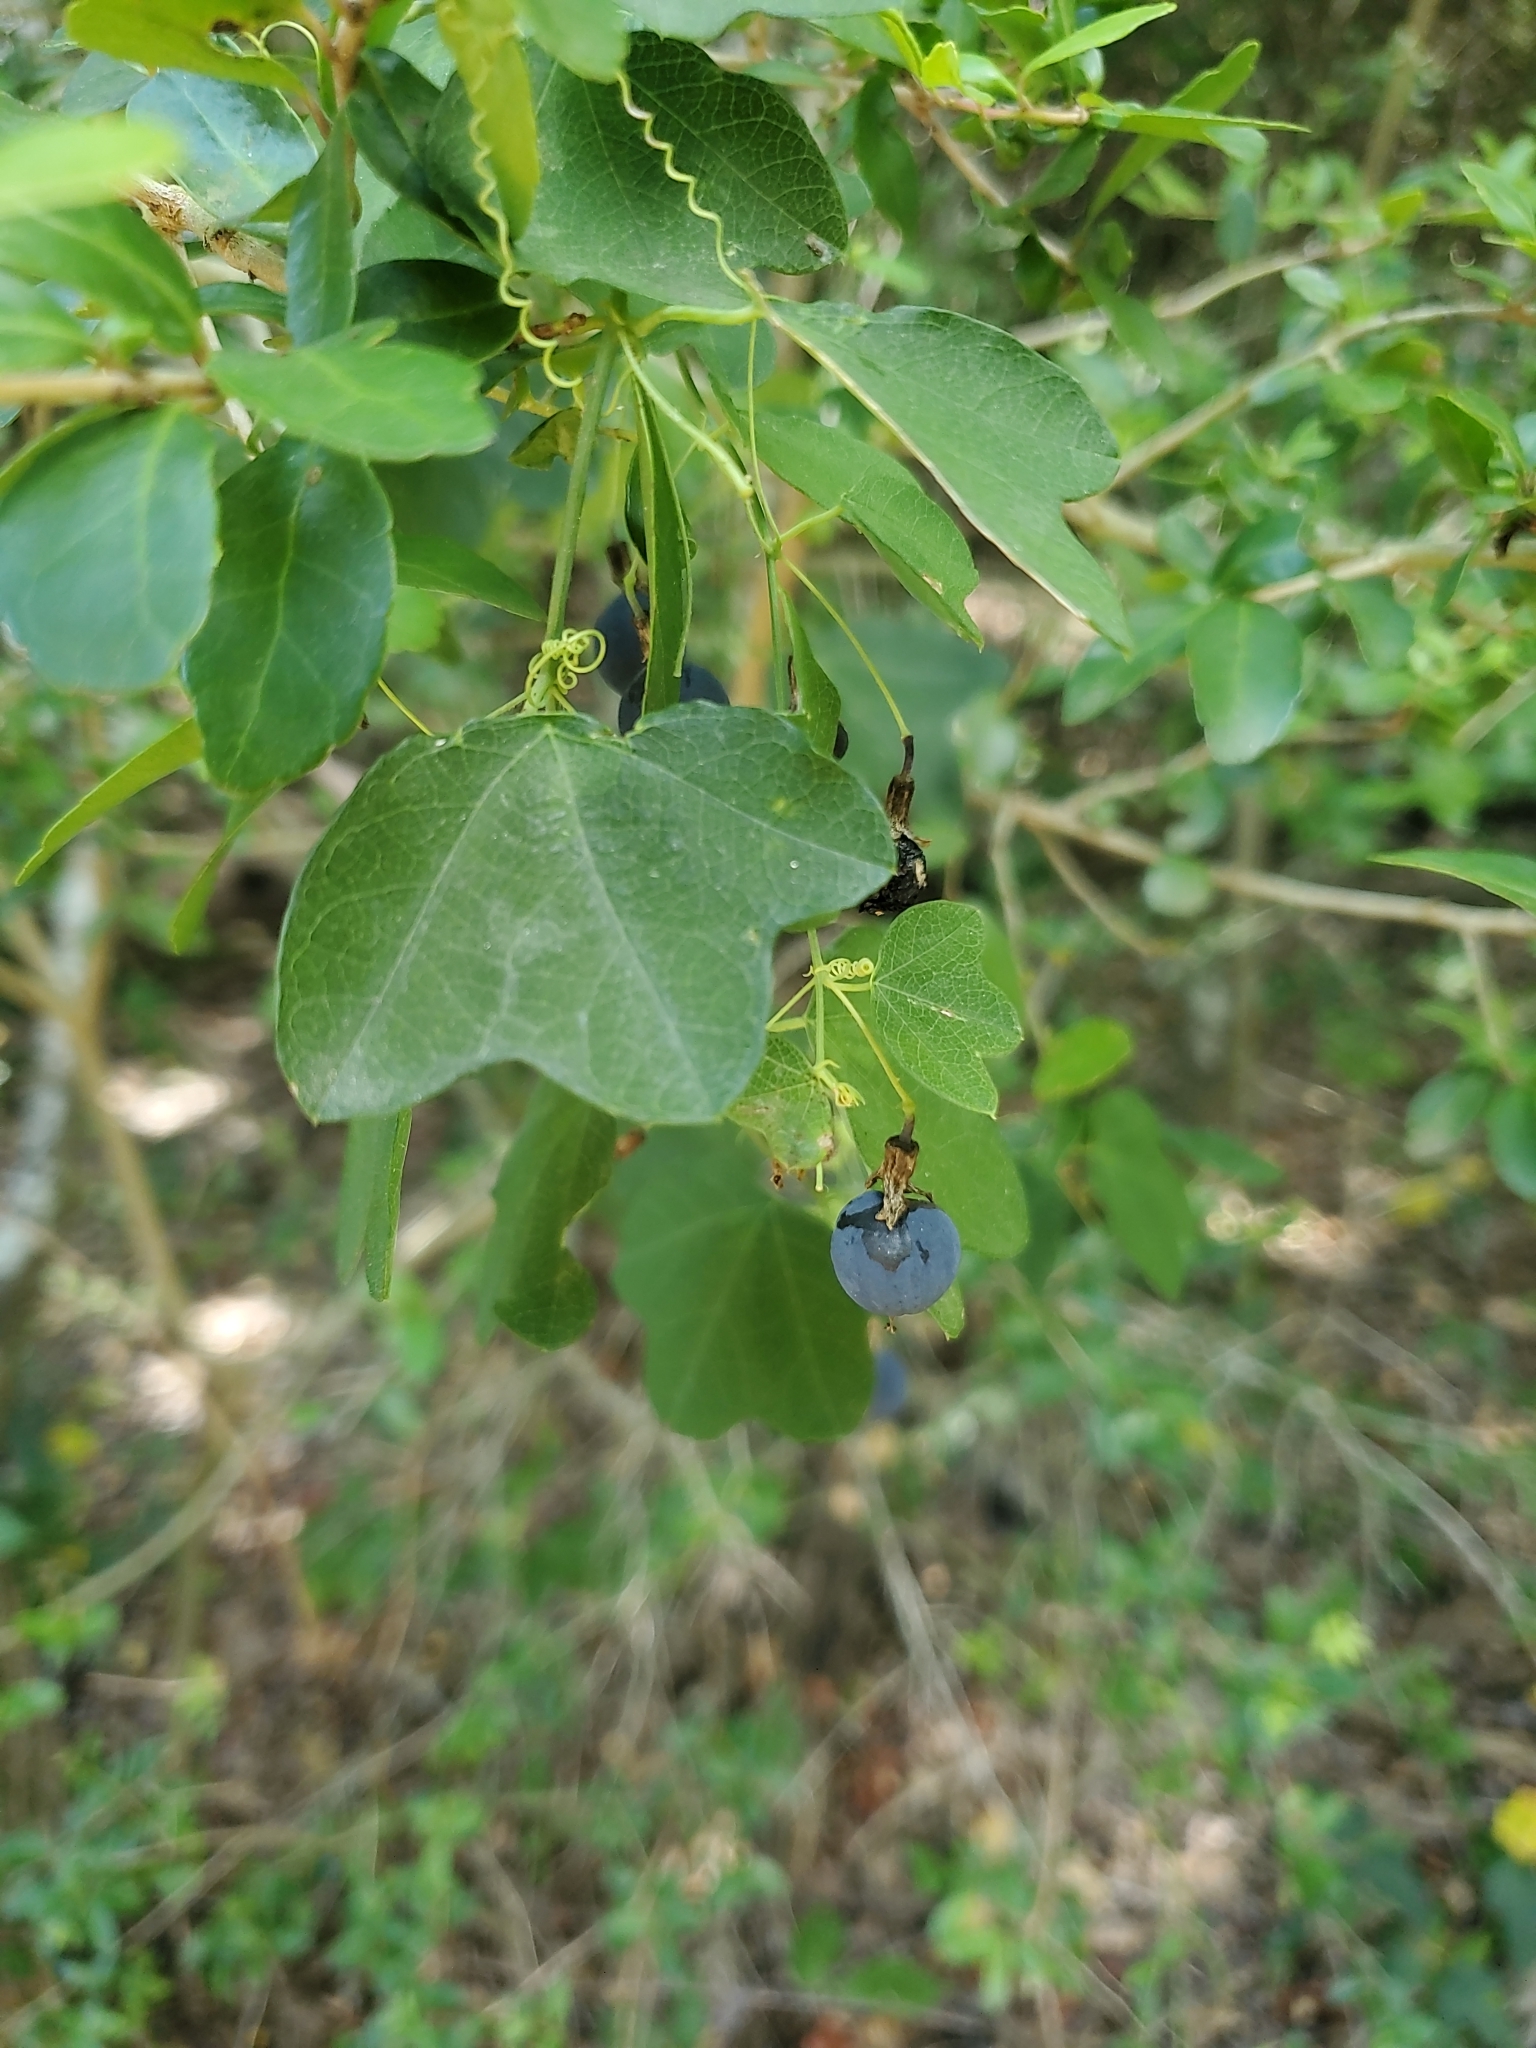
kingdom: Plantae
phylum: Tracheophyta
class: Magnoliopsida
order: Malpighiales
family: Passifloraceae
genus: Passiflora
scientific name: Passiflora lutea
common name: Yellow passionflower
